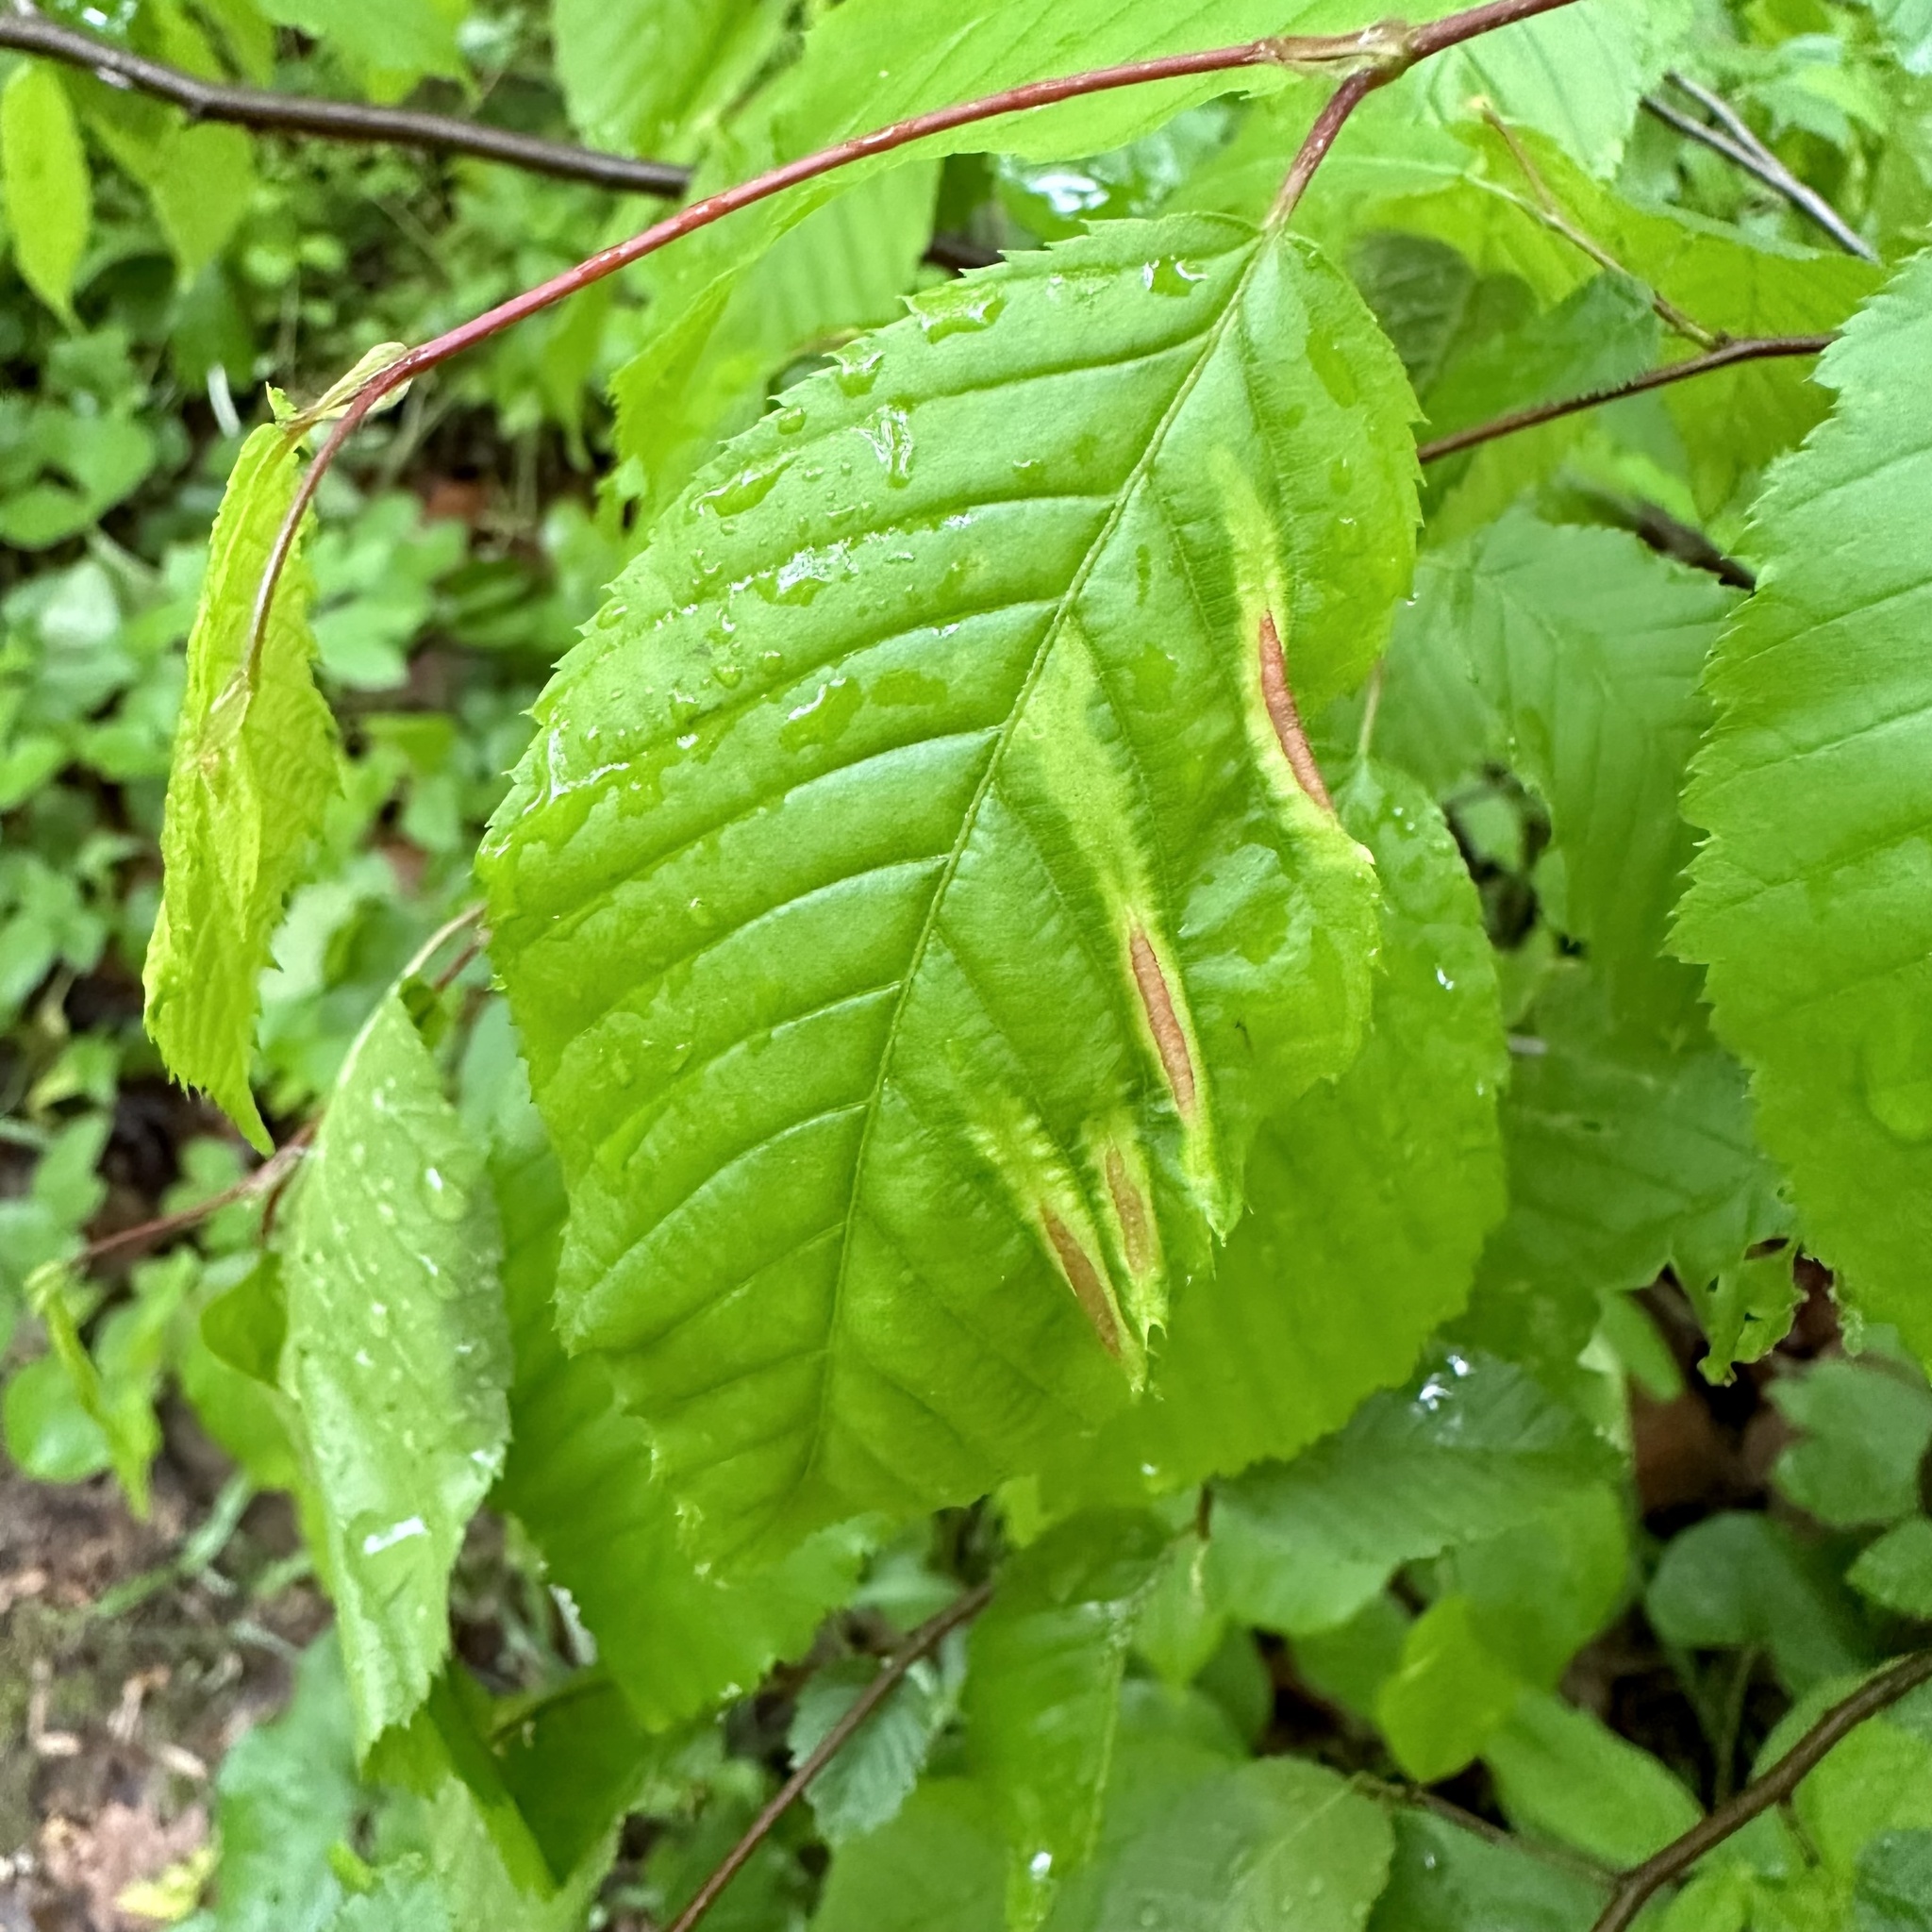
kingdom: Animalia
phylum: Arthropoda
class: Insecta
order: Diptera
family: Cecidomyiidae
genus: Dasineura
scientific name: Dasineura pudibunda
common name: Hornbeam leaf gall midge
